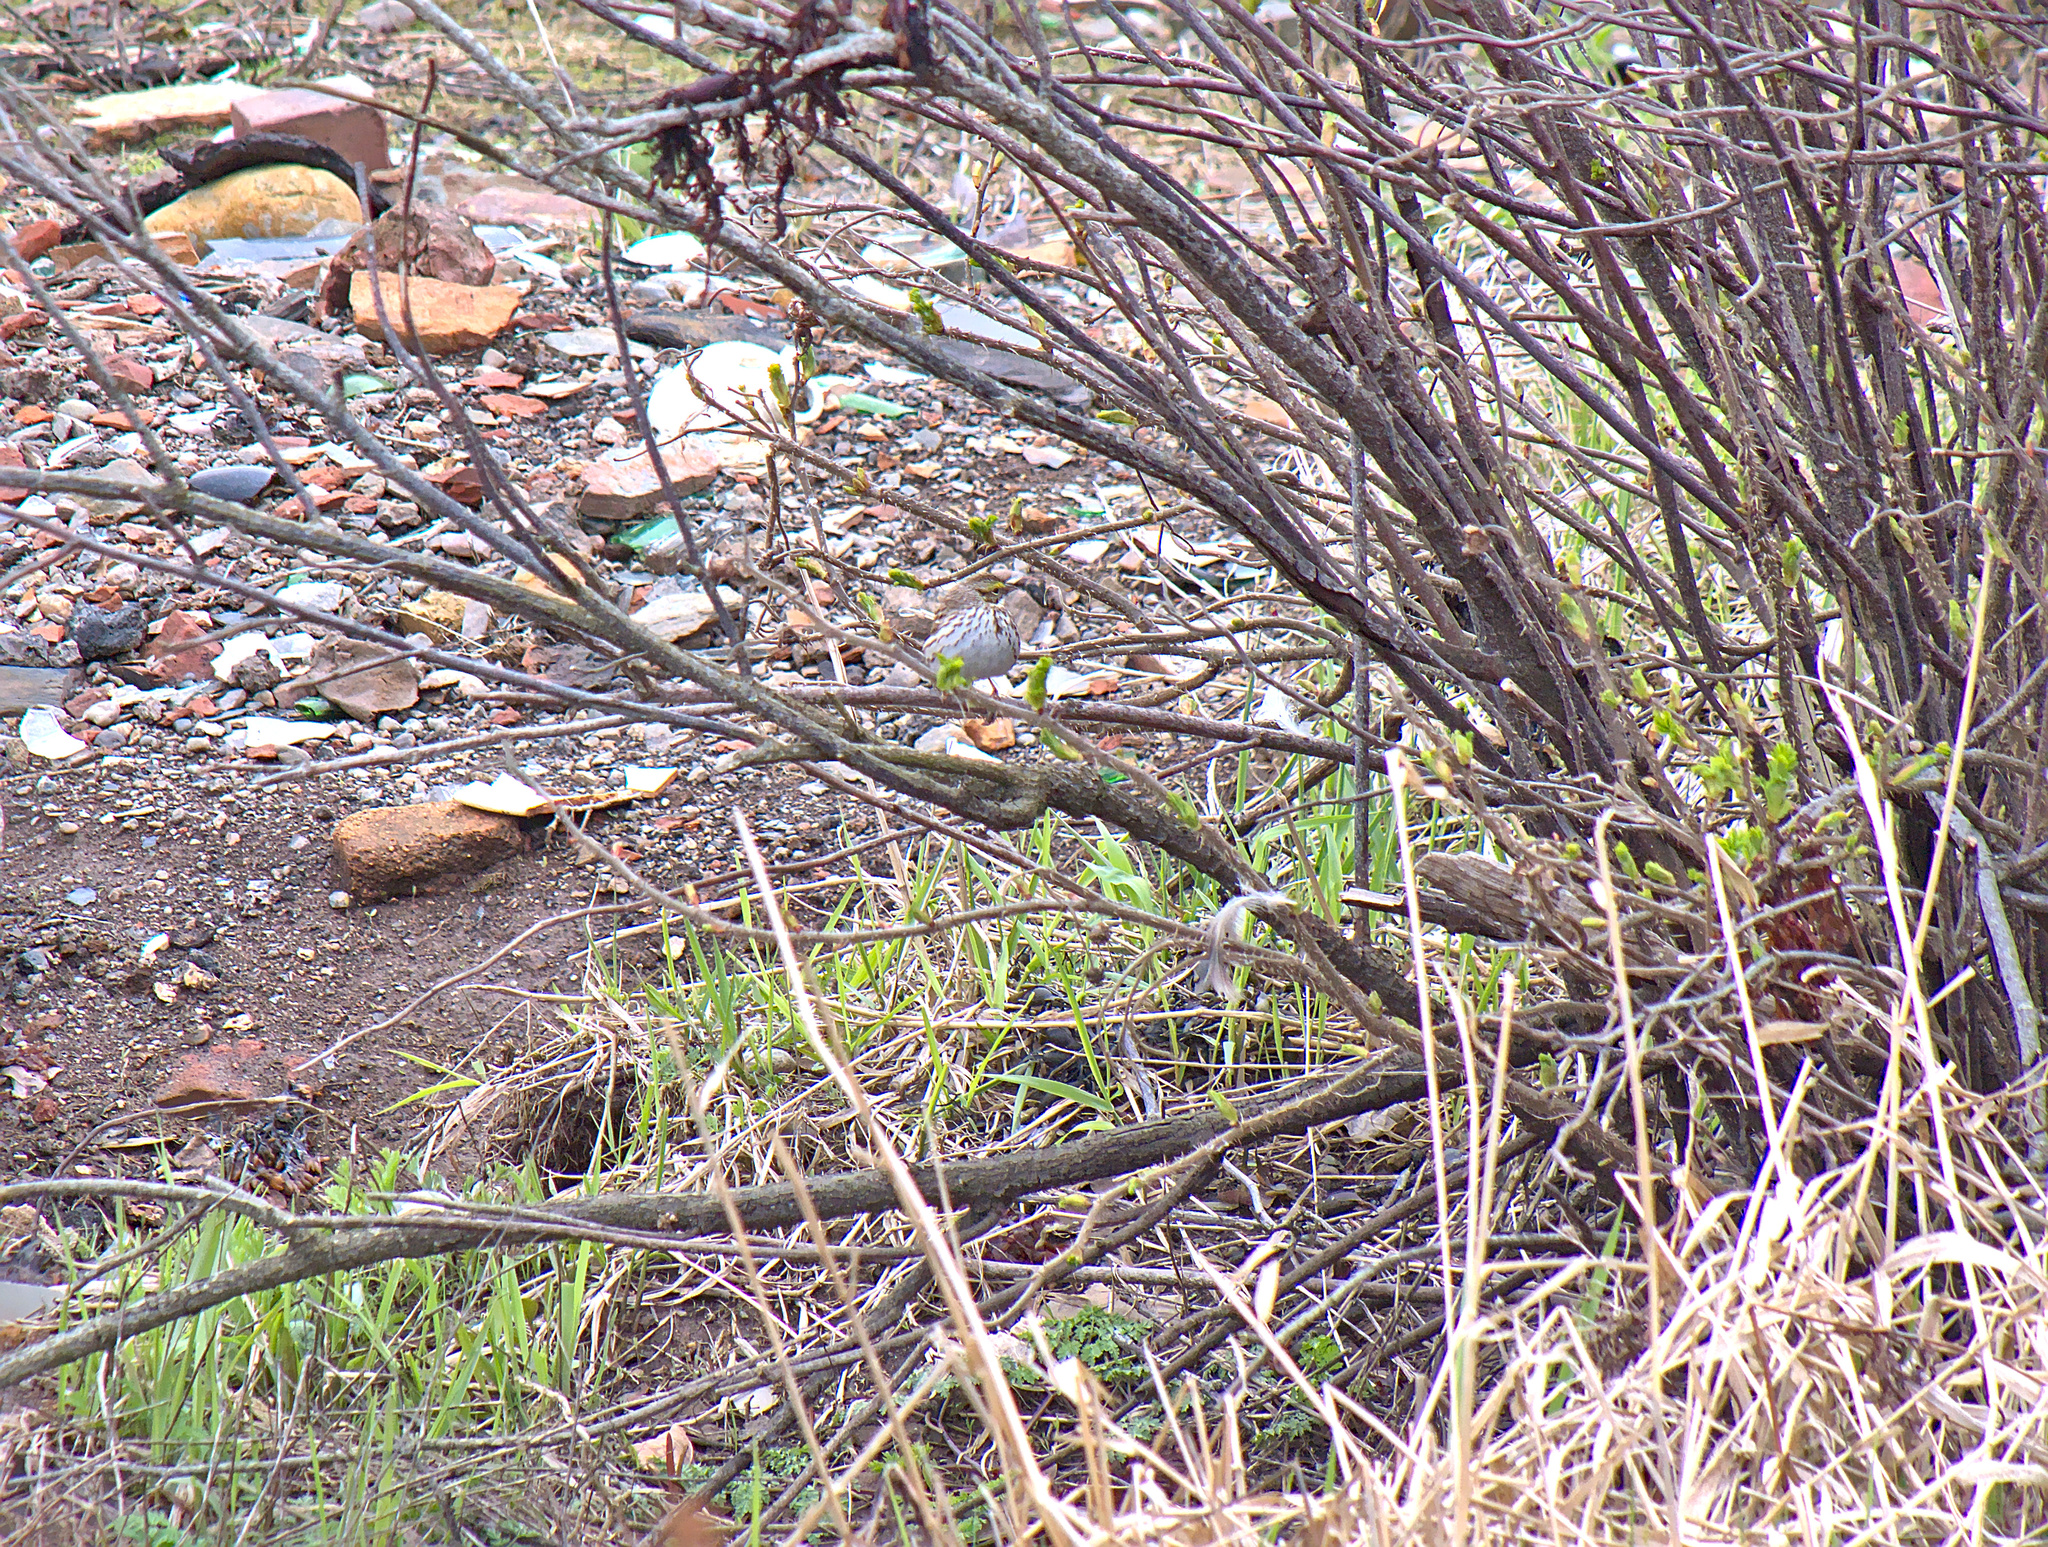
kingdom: Animalia
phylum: Chordata
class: Aves
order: Passeriformes
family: Passerellidae
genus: Melospiza
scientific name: Melospiza melodia
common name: Song sparrow
